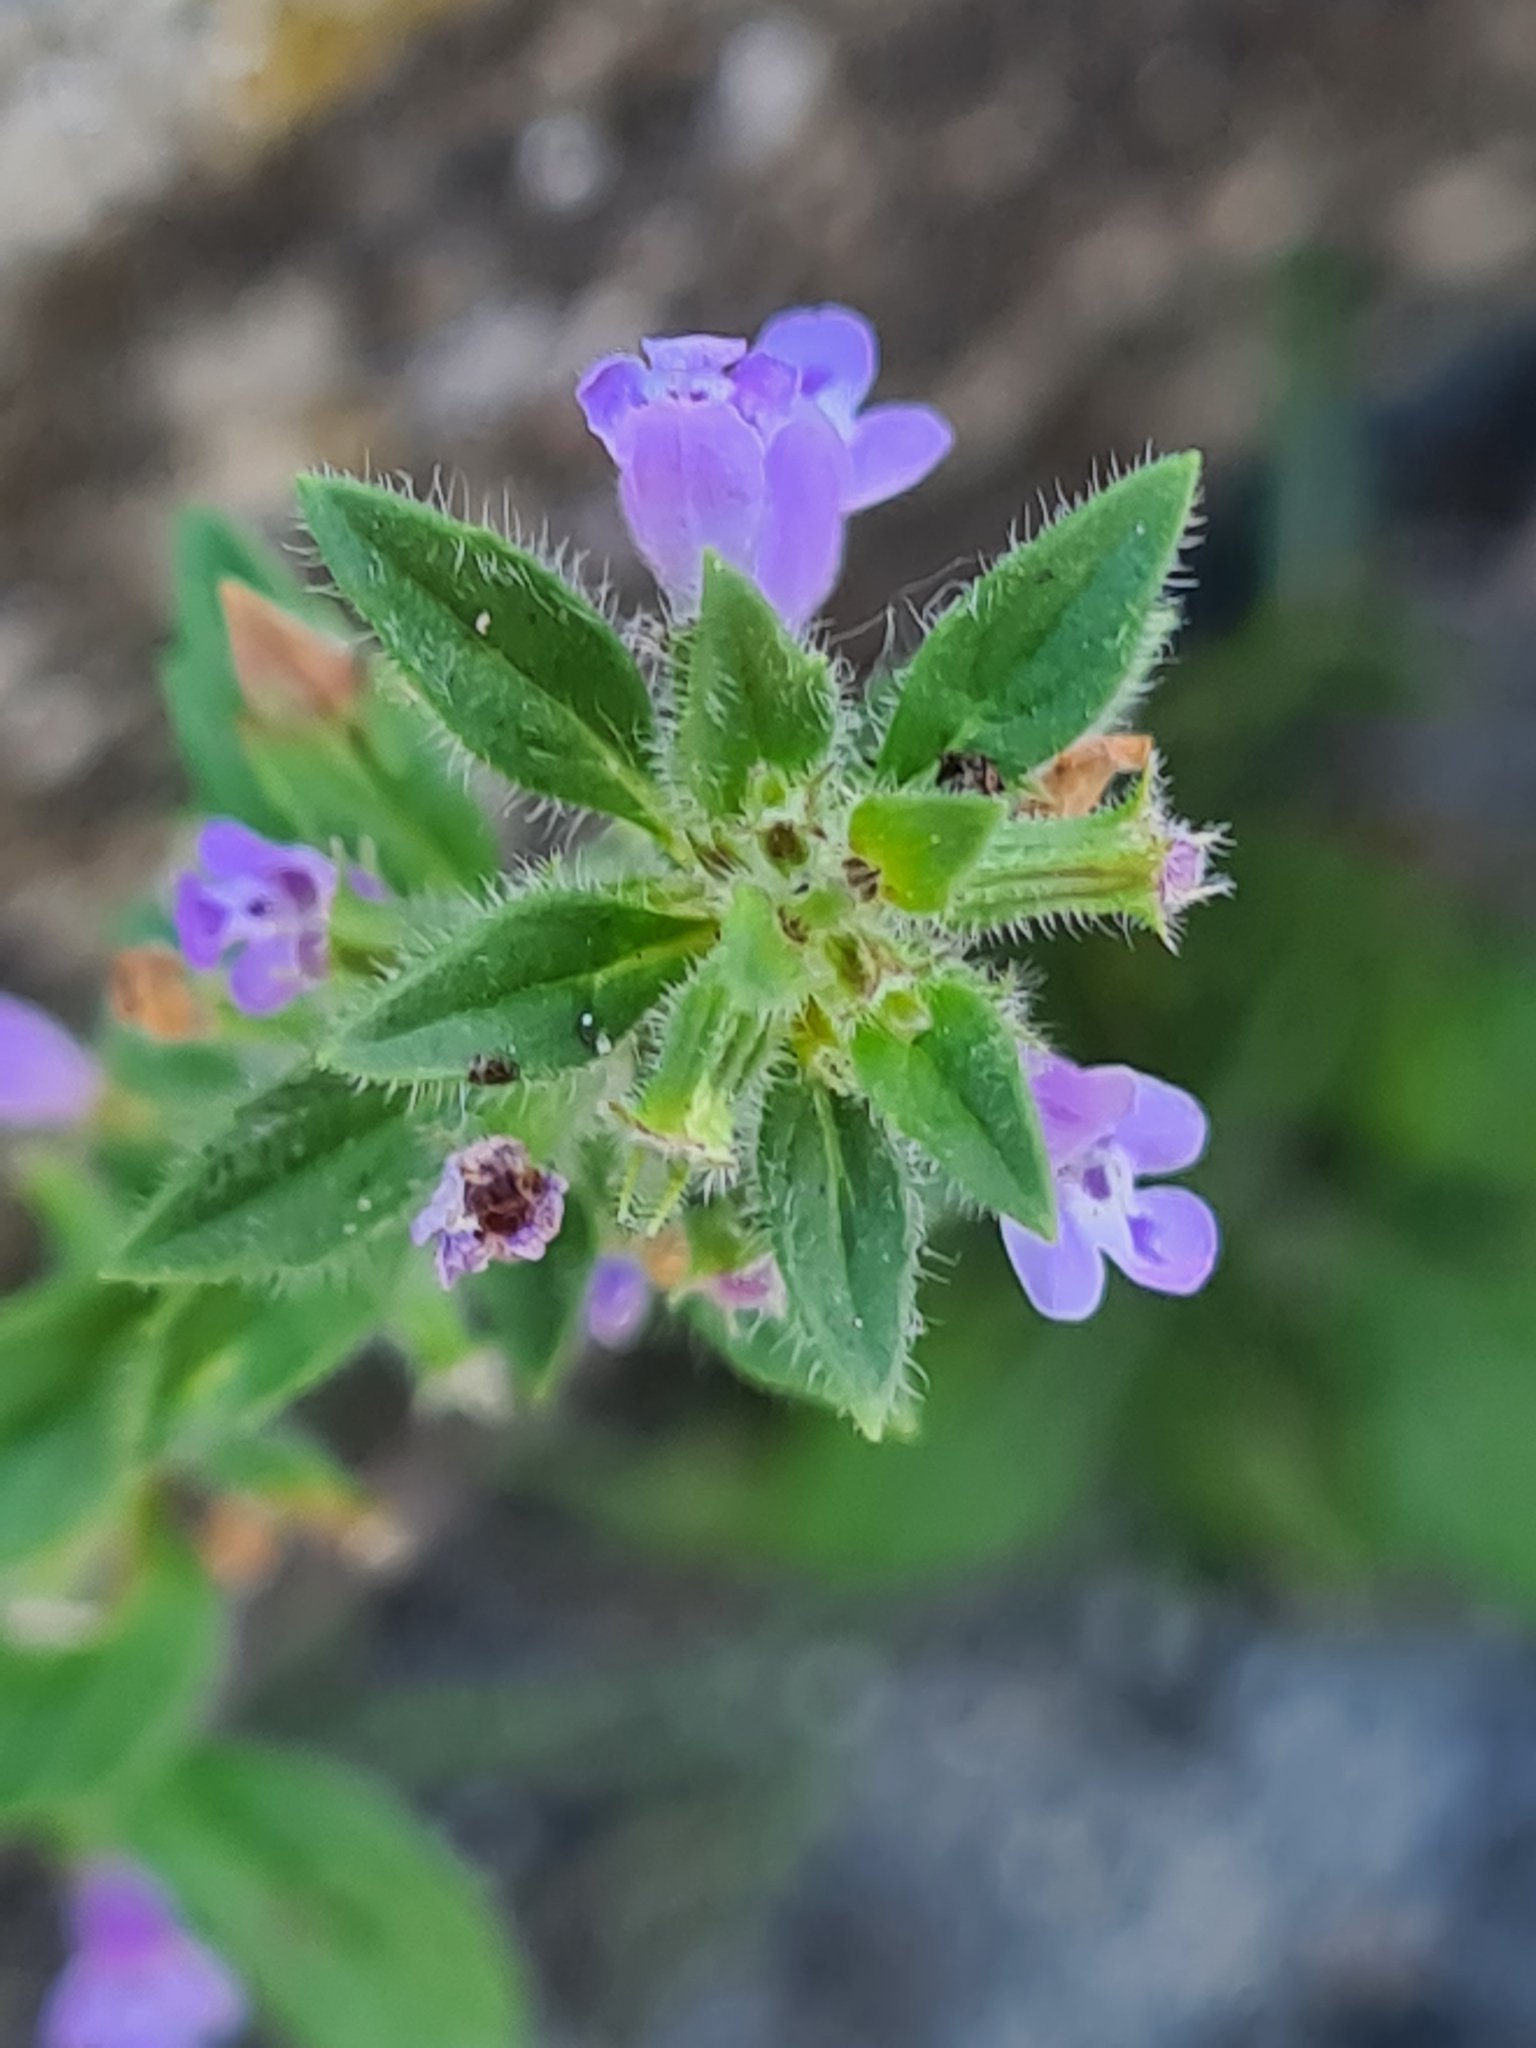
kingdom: Plantae
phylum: Tracheophyta
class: Magnoliopsida
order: Lamiales
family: Lamiaceae
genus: Clinopodium
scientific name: Clinopodium acinos
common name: Basil thyme
